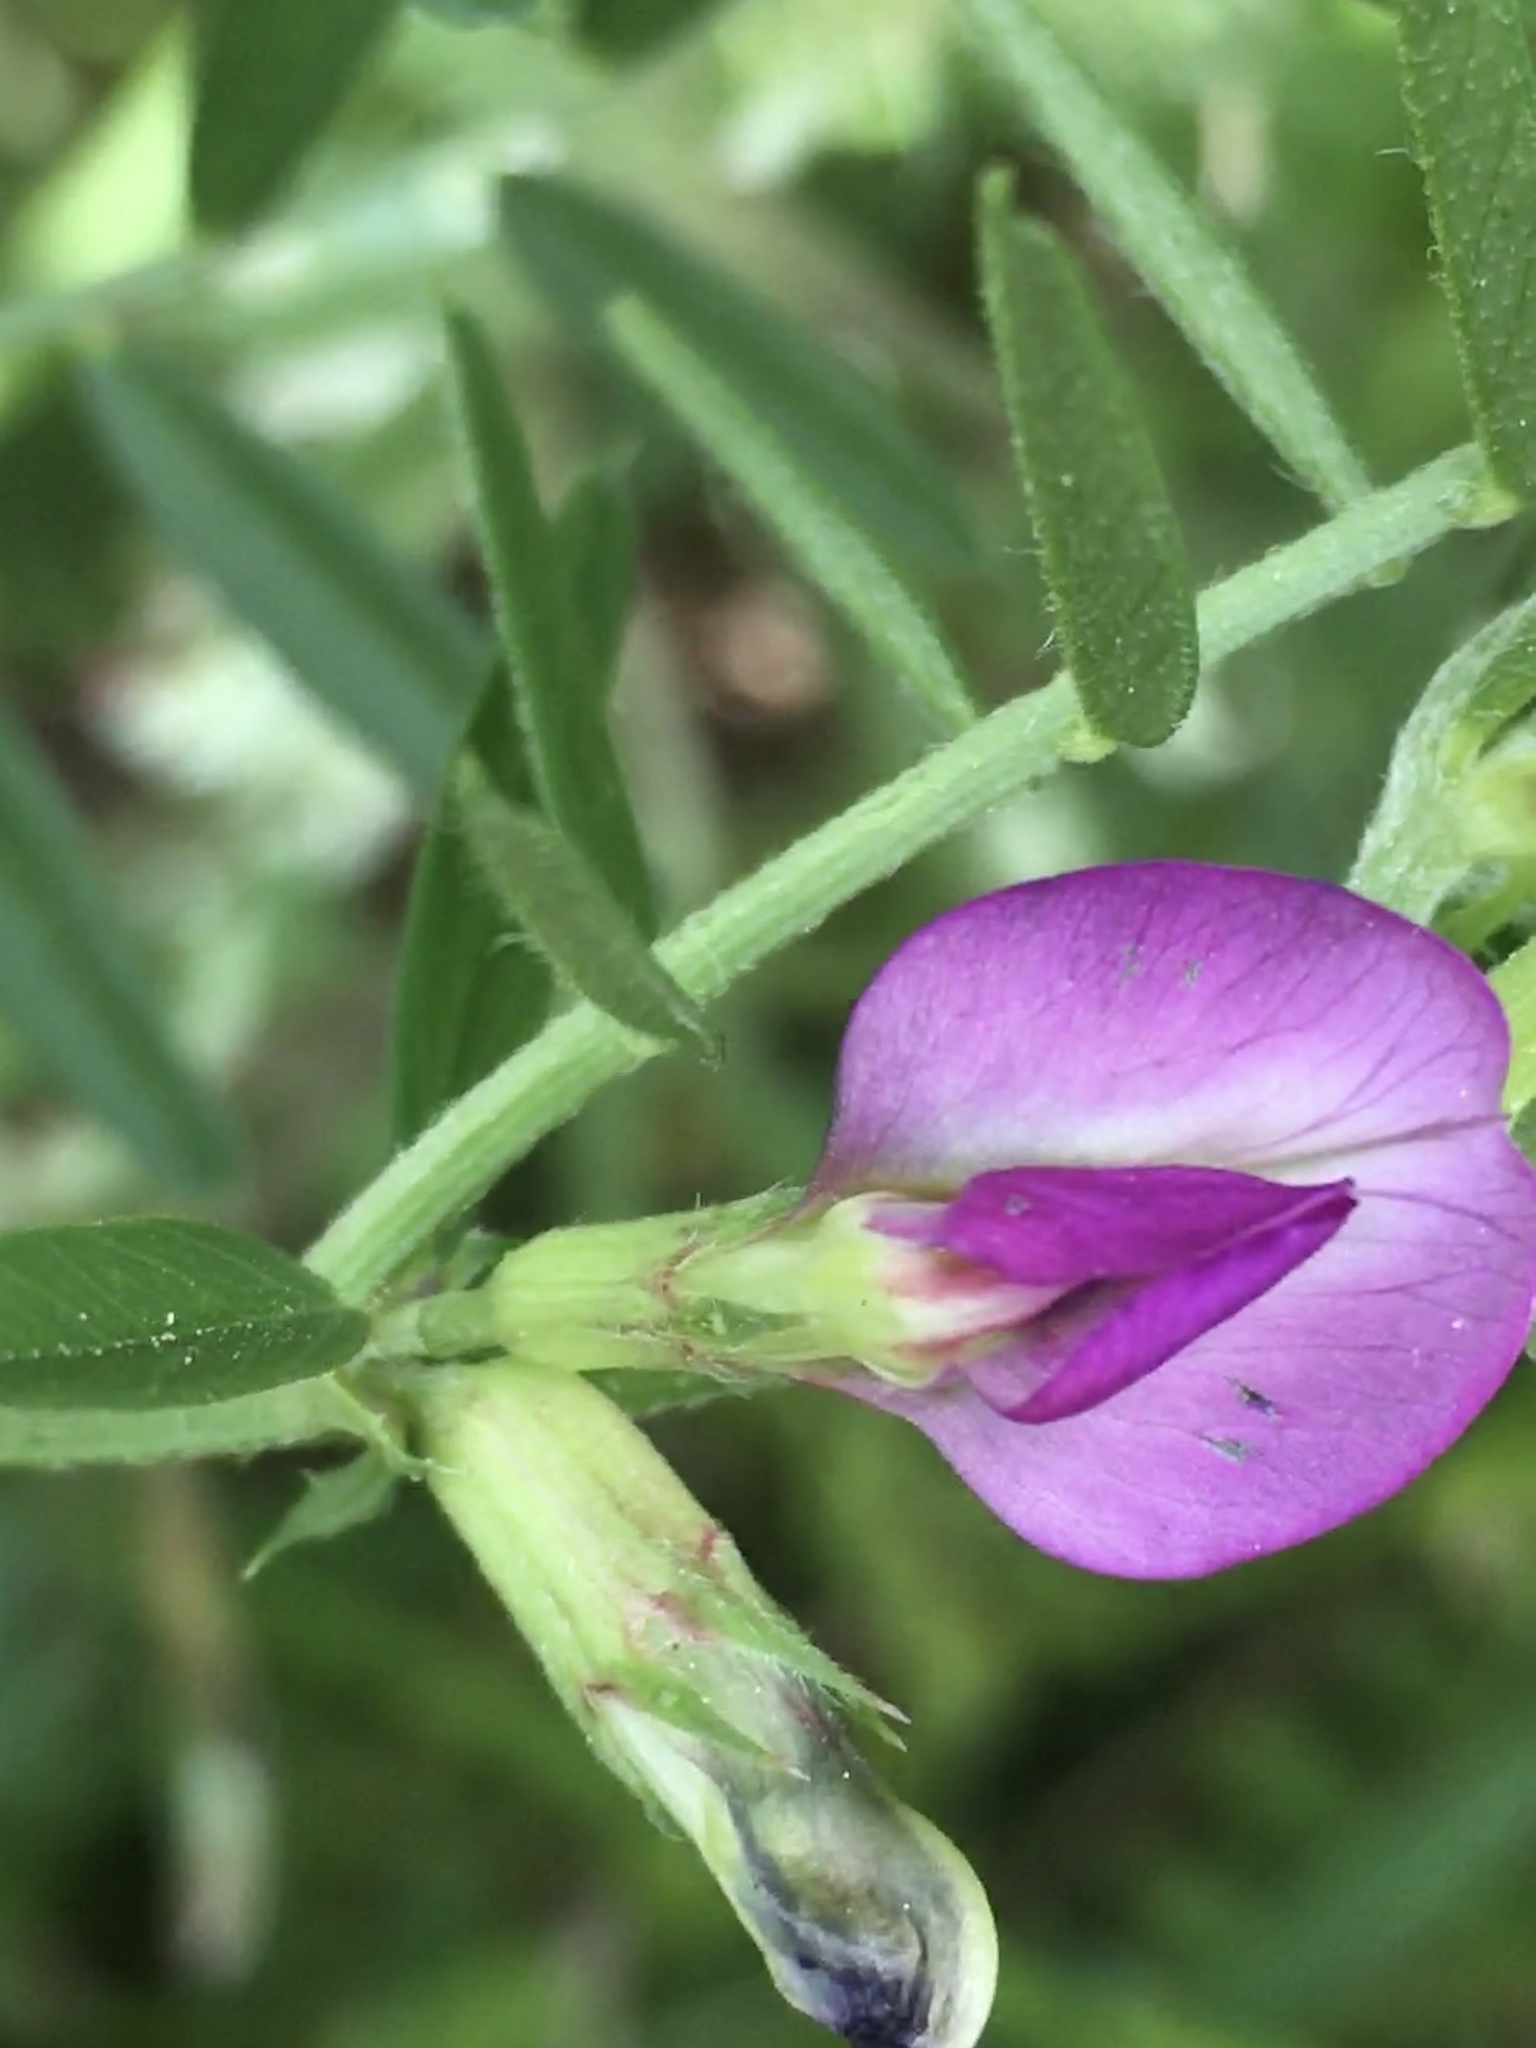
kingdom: Plantae
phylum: Tracheophyta
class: Magnoliopsida
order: Fabales
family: Fabaceae
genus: Vicia
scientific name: Vicia sativa
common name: Garden vetch
